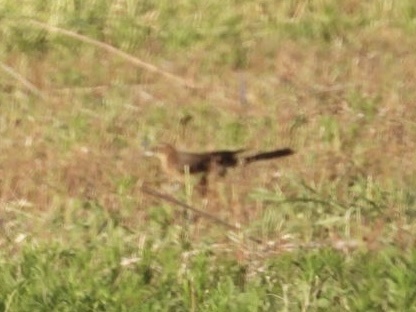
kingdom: Animalia
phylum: Chordata
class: Aves
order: Passeriformes
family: Icteridae
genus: Quiscalus
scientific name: Quiscalus mexicanus
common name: Great-tailed grackle
